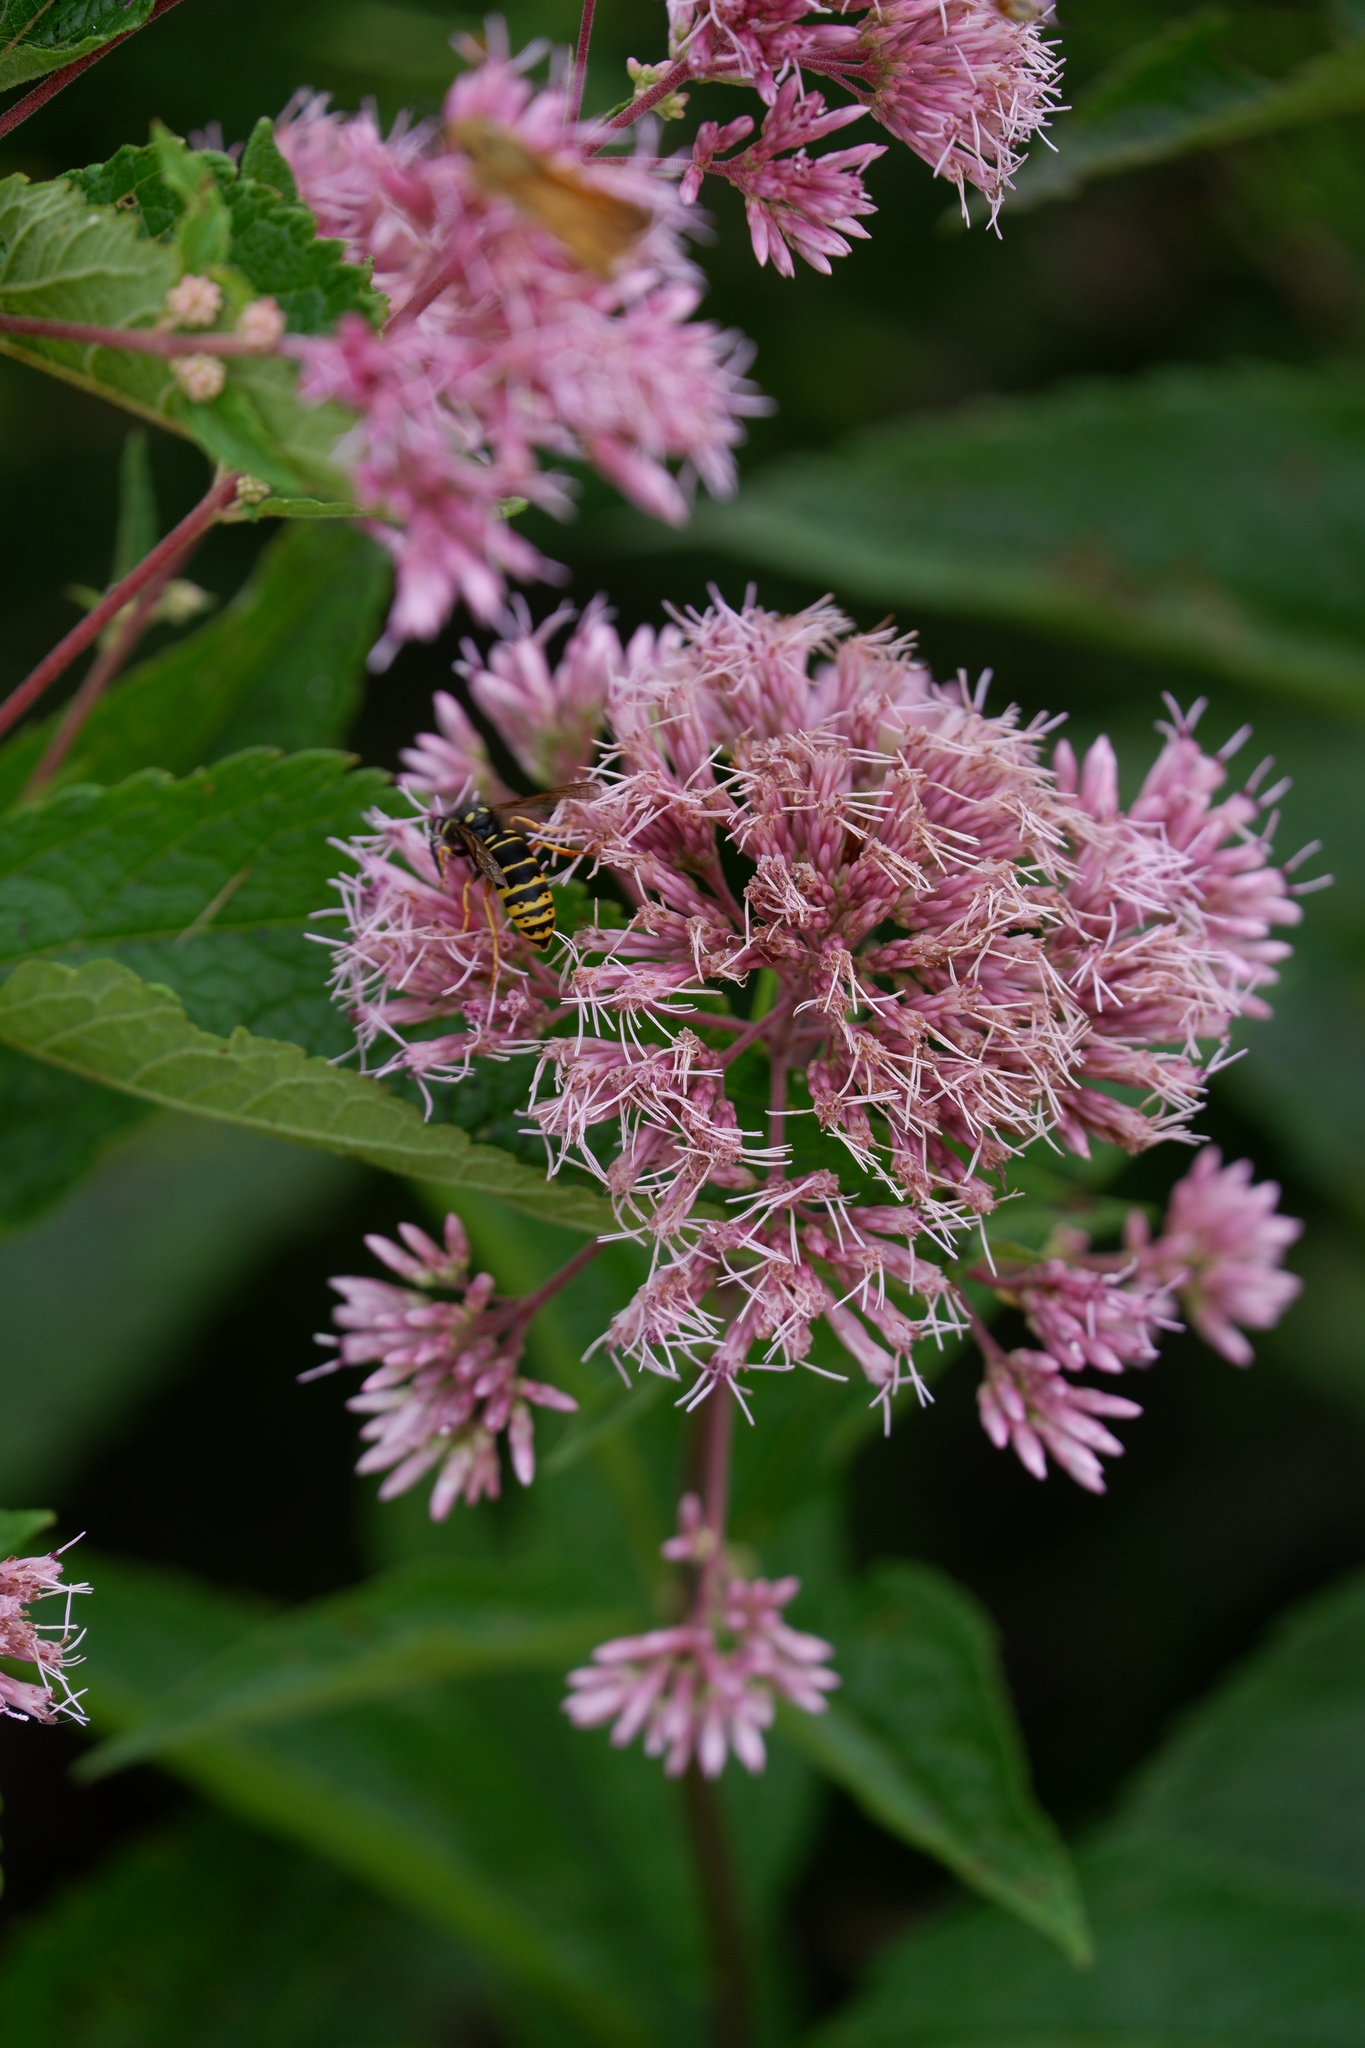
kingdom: Animalia
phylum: Arthropoda
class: Insecta
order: Hymenoptera
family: Vespidae
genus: Vespula
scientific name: Vespula vidua
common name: Widow yellowjacket
